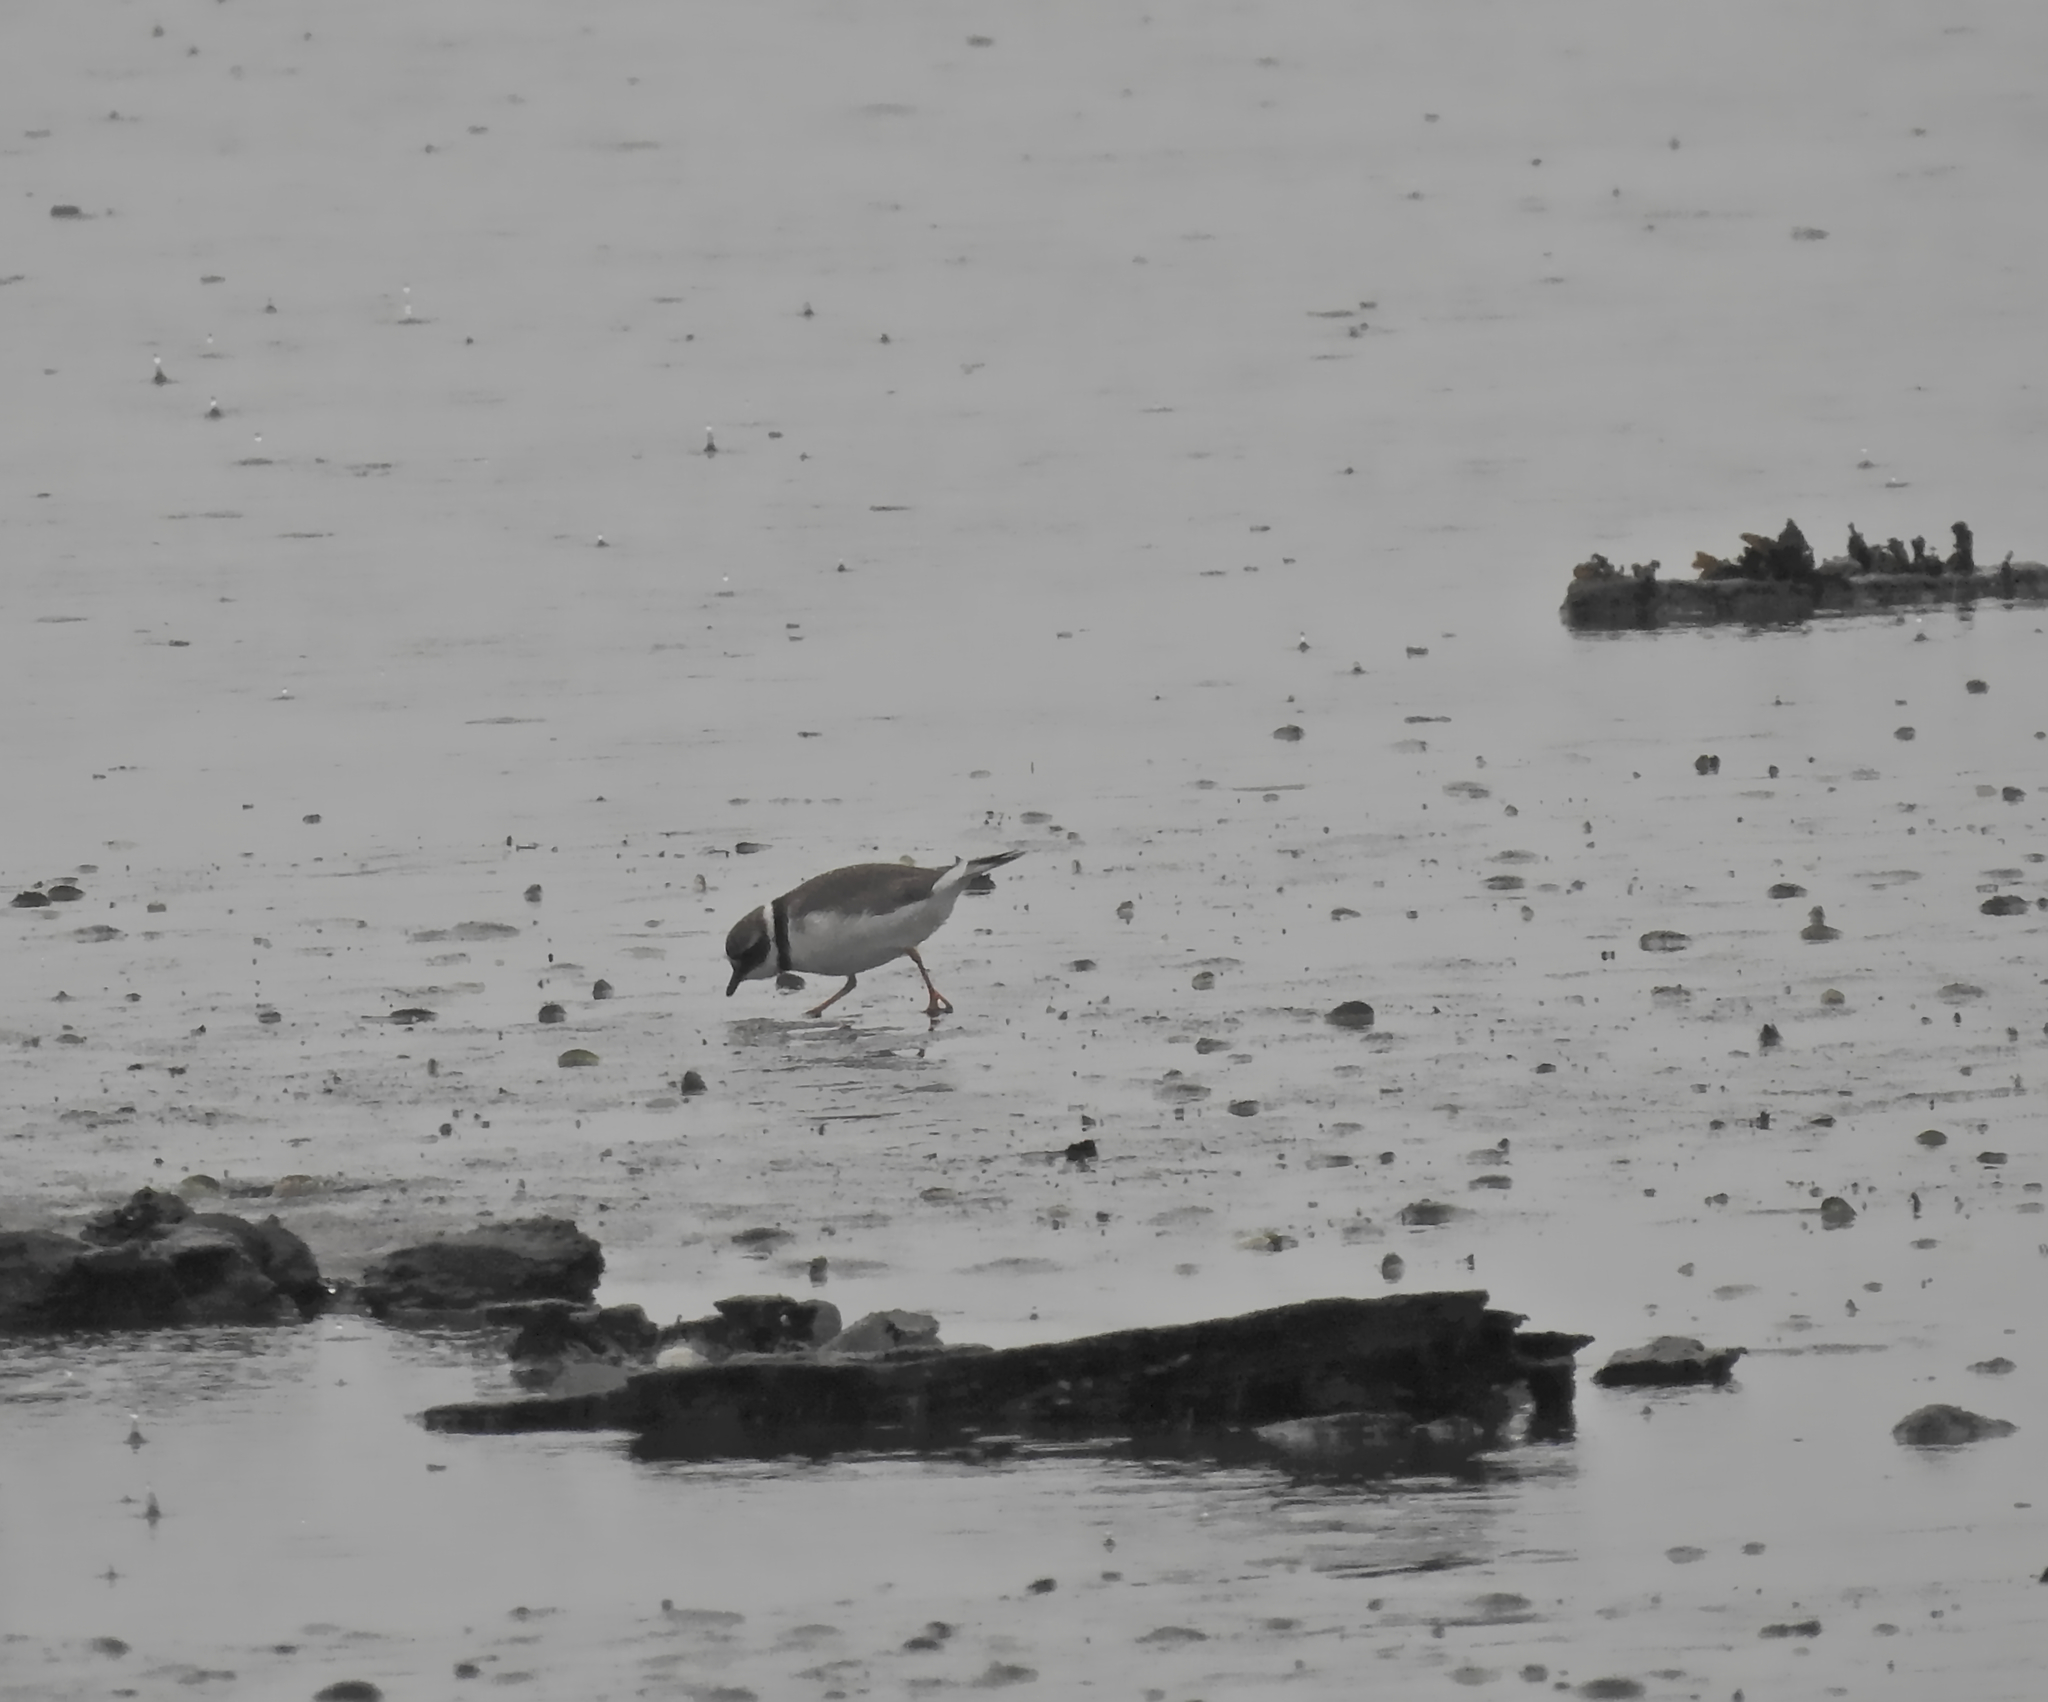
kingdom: Animalia
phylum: Chordata
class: Aves
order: Charadriiformes
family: Charadriidae
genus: Charadrius
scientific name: Charadrius hiaticula
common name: Common ringed plover
